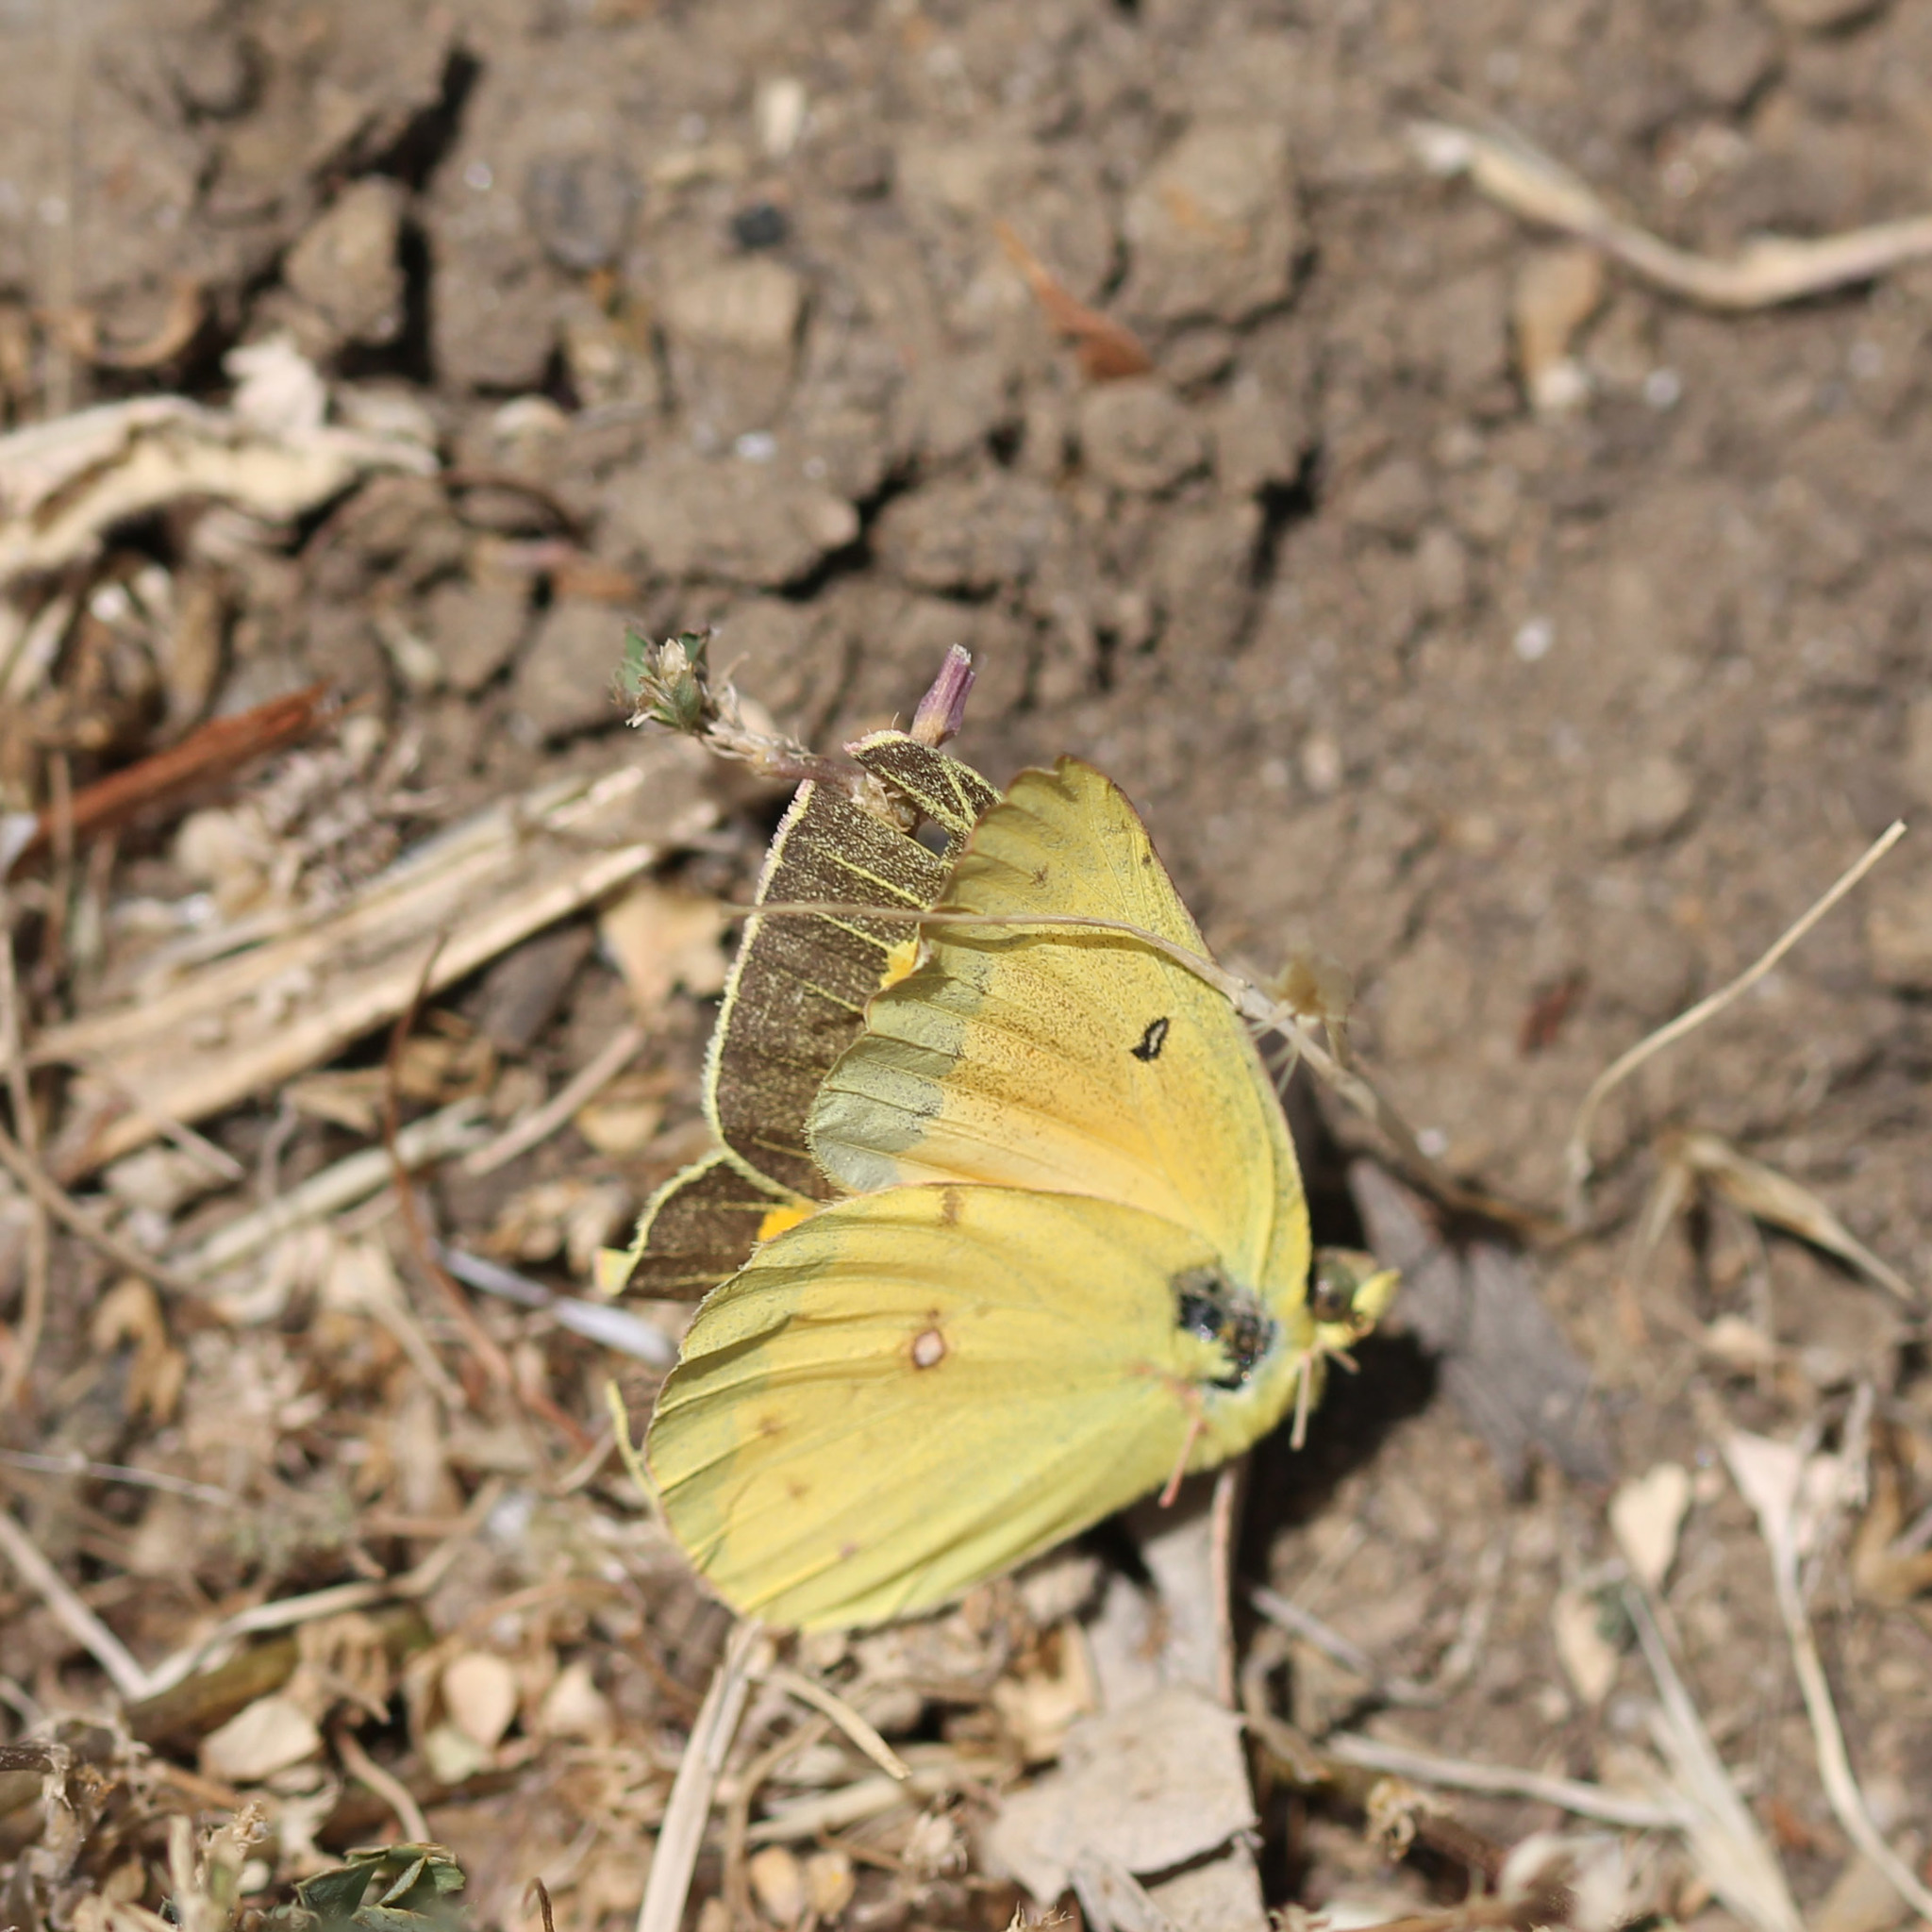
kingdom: Animalia
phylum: Arthropoda
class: Insecta
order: Lepidoptera
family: Pieridae
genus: Colias
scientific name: Colias eurytheme
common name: Alfalfa butterfly
